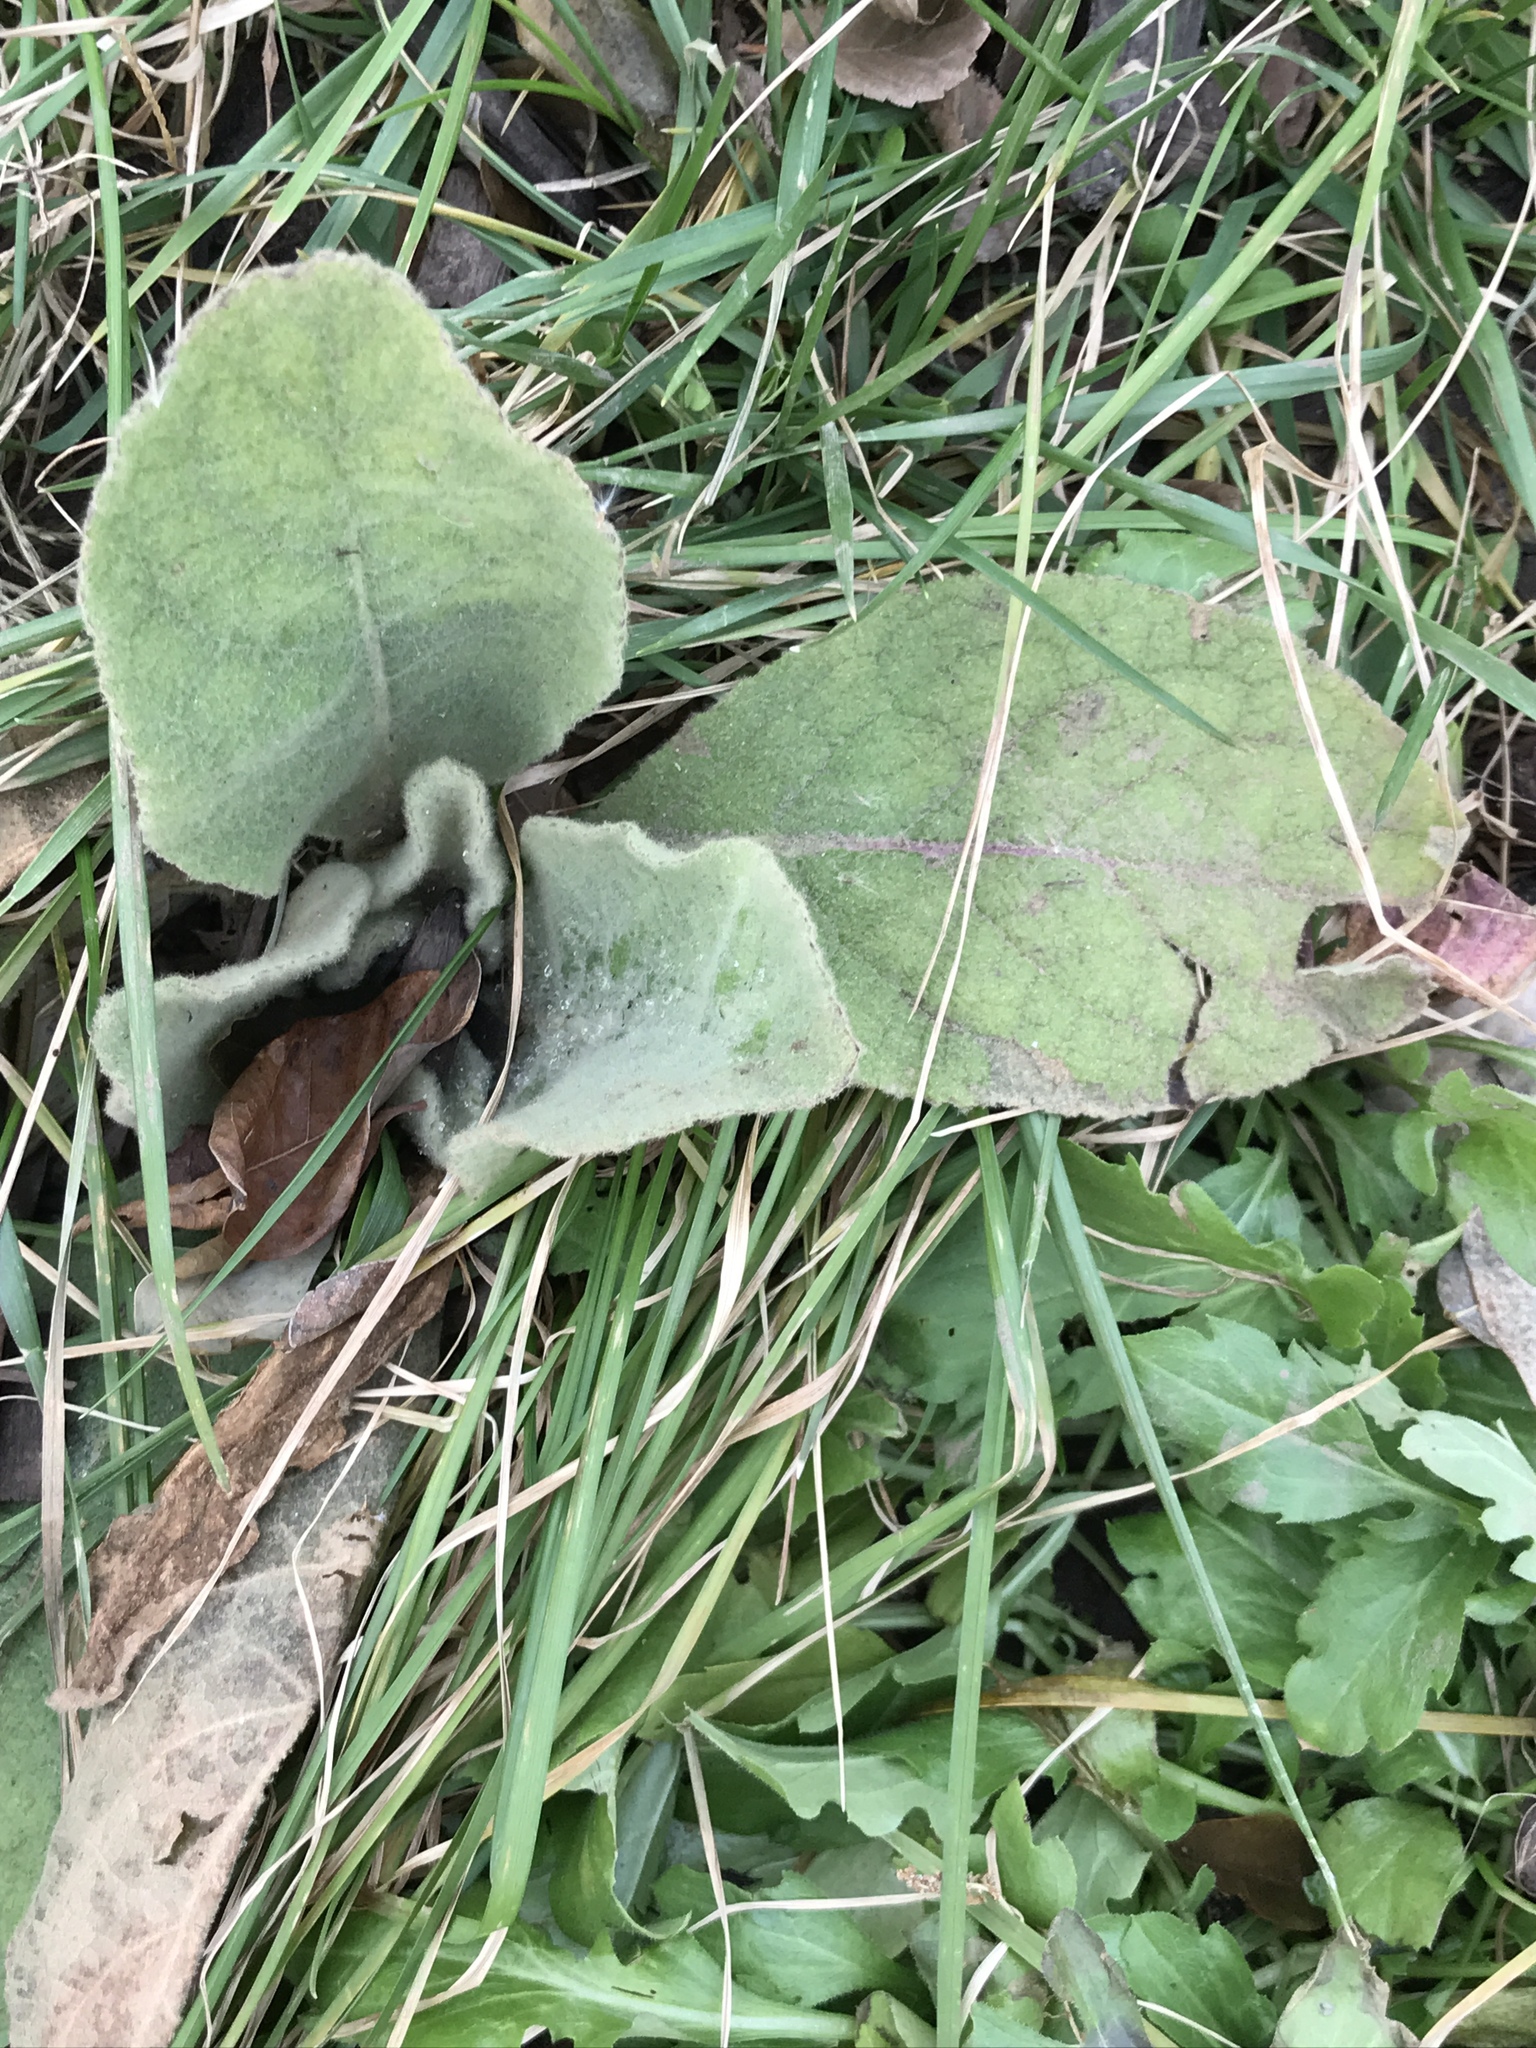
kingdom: Plantae
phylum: Tracheophyta
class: Magnoliopsida
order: Lamiales
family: Scrophulariaceae
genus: Verbascum
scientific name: Verbascum thapsus
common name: Common mullein
